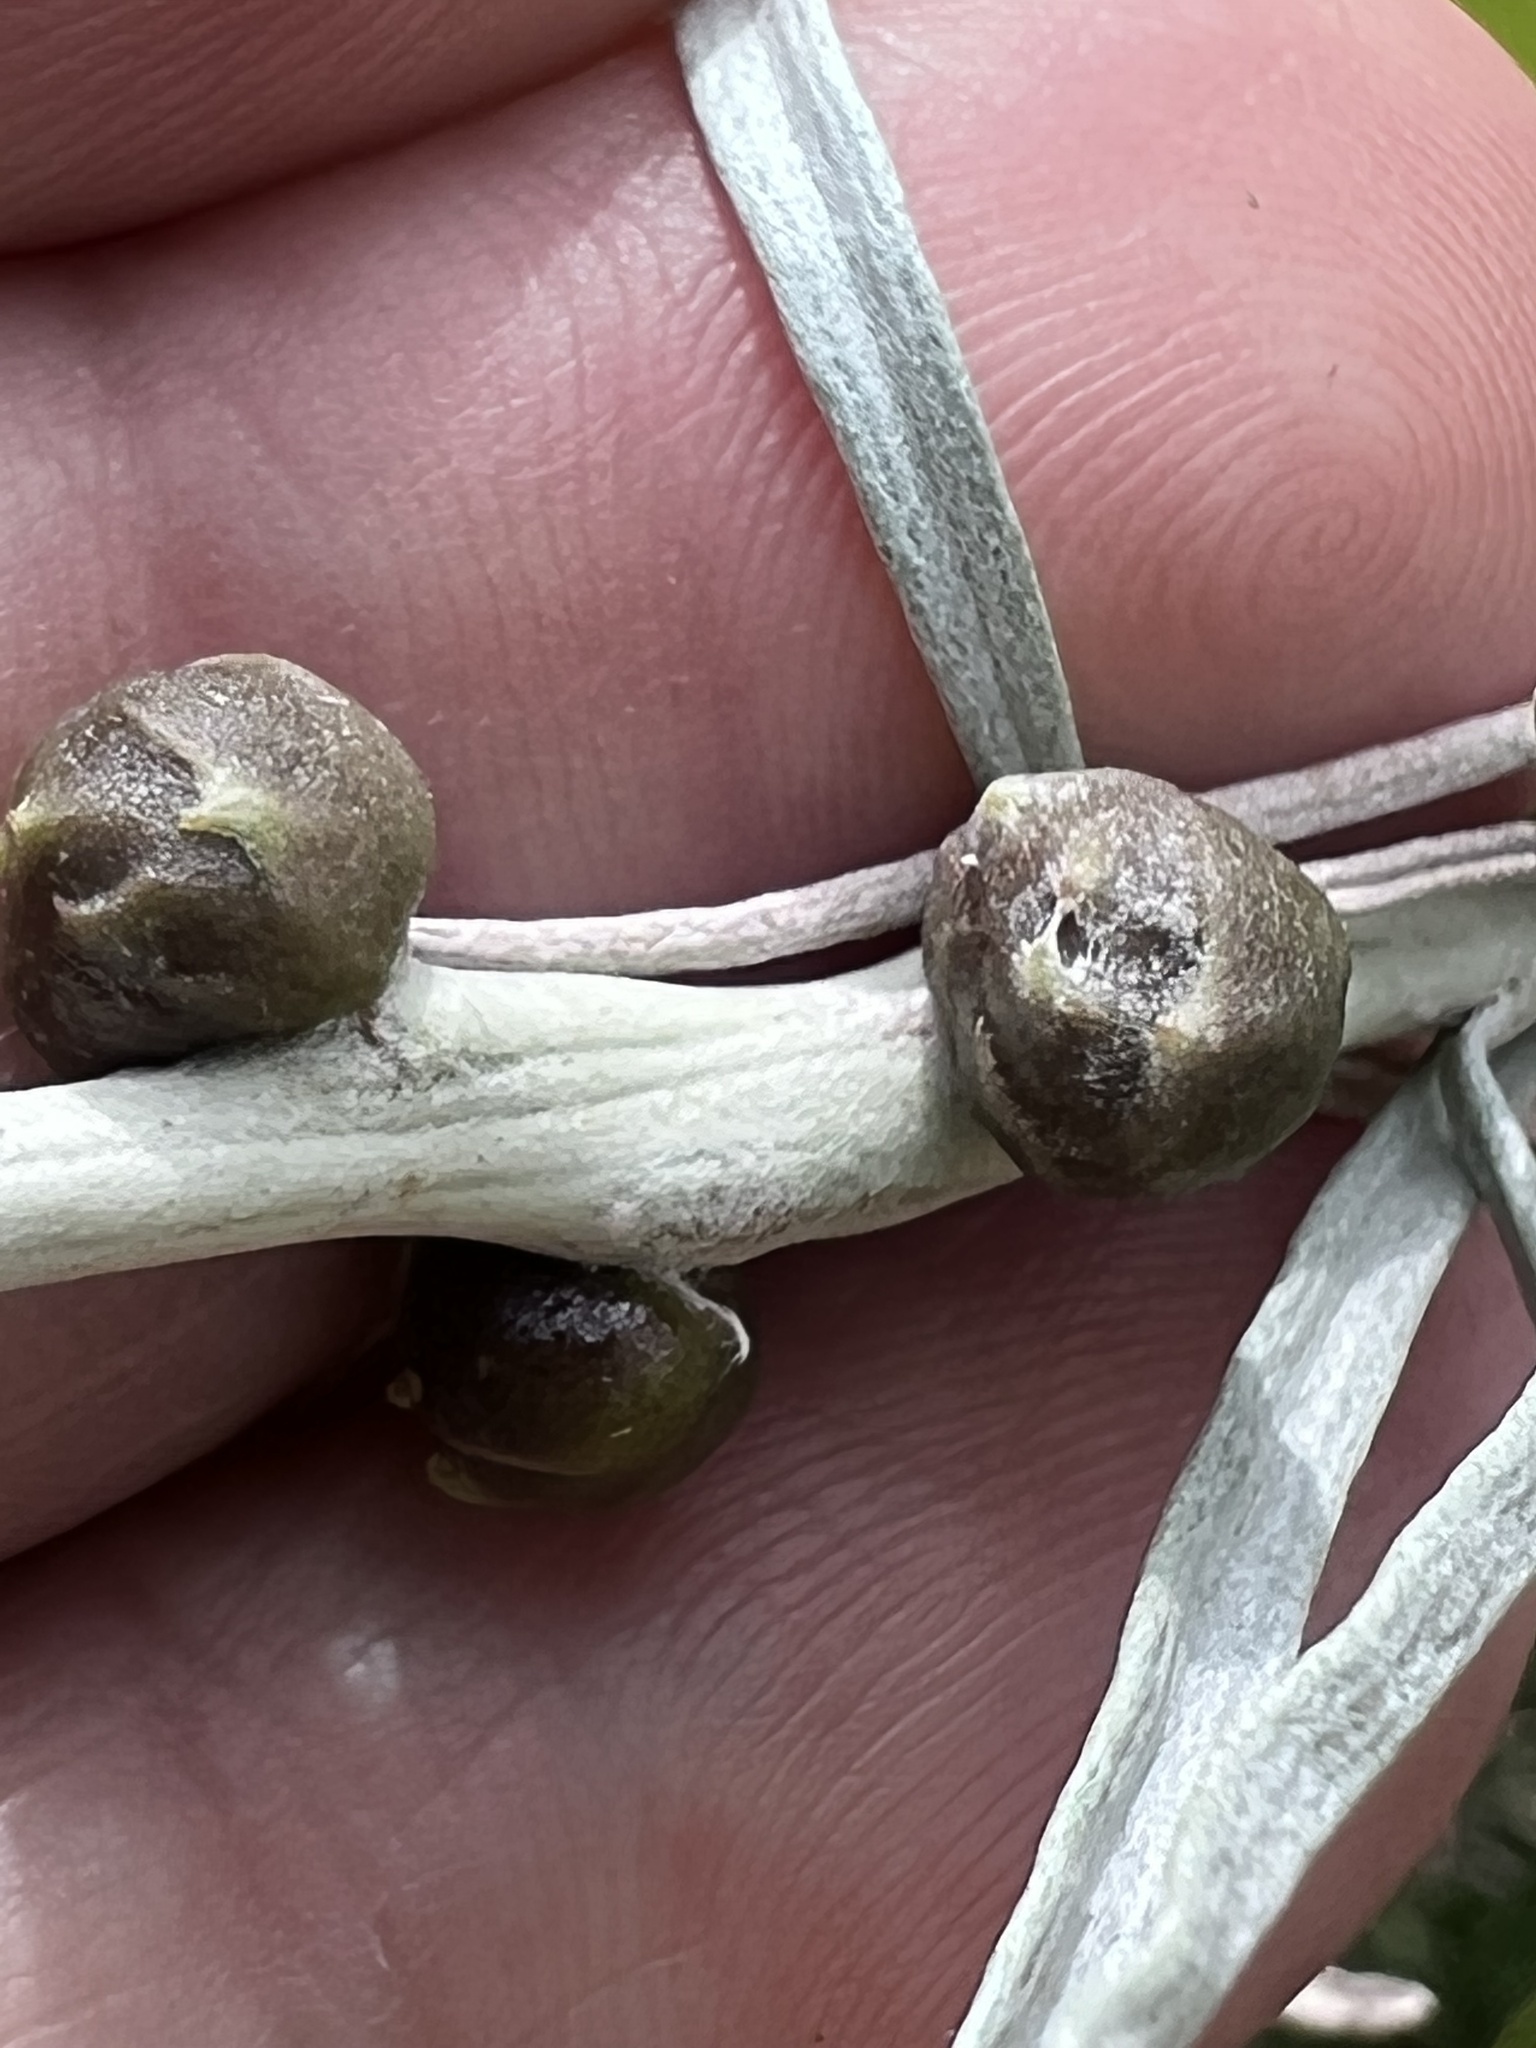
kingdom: Animalia
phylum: Arthropoda
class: Insecta
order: Diptera
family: Tephritidae
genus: Aciurina
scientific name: Aciurina trixa
